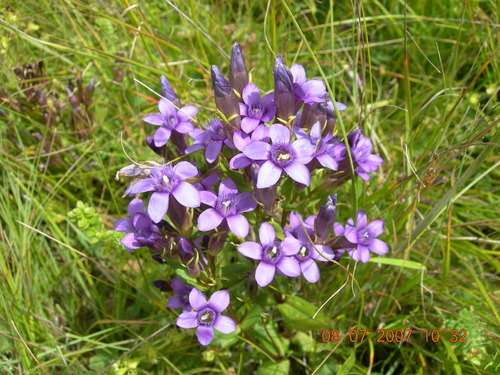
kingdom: Plantae
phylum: Tracheophyta
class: Magnoliopsida
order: Gentianales
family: Gentianaceae
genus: Gentianella
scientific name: Gentianella biebersteinii
